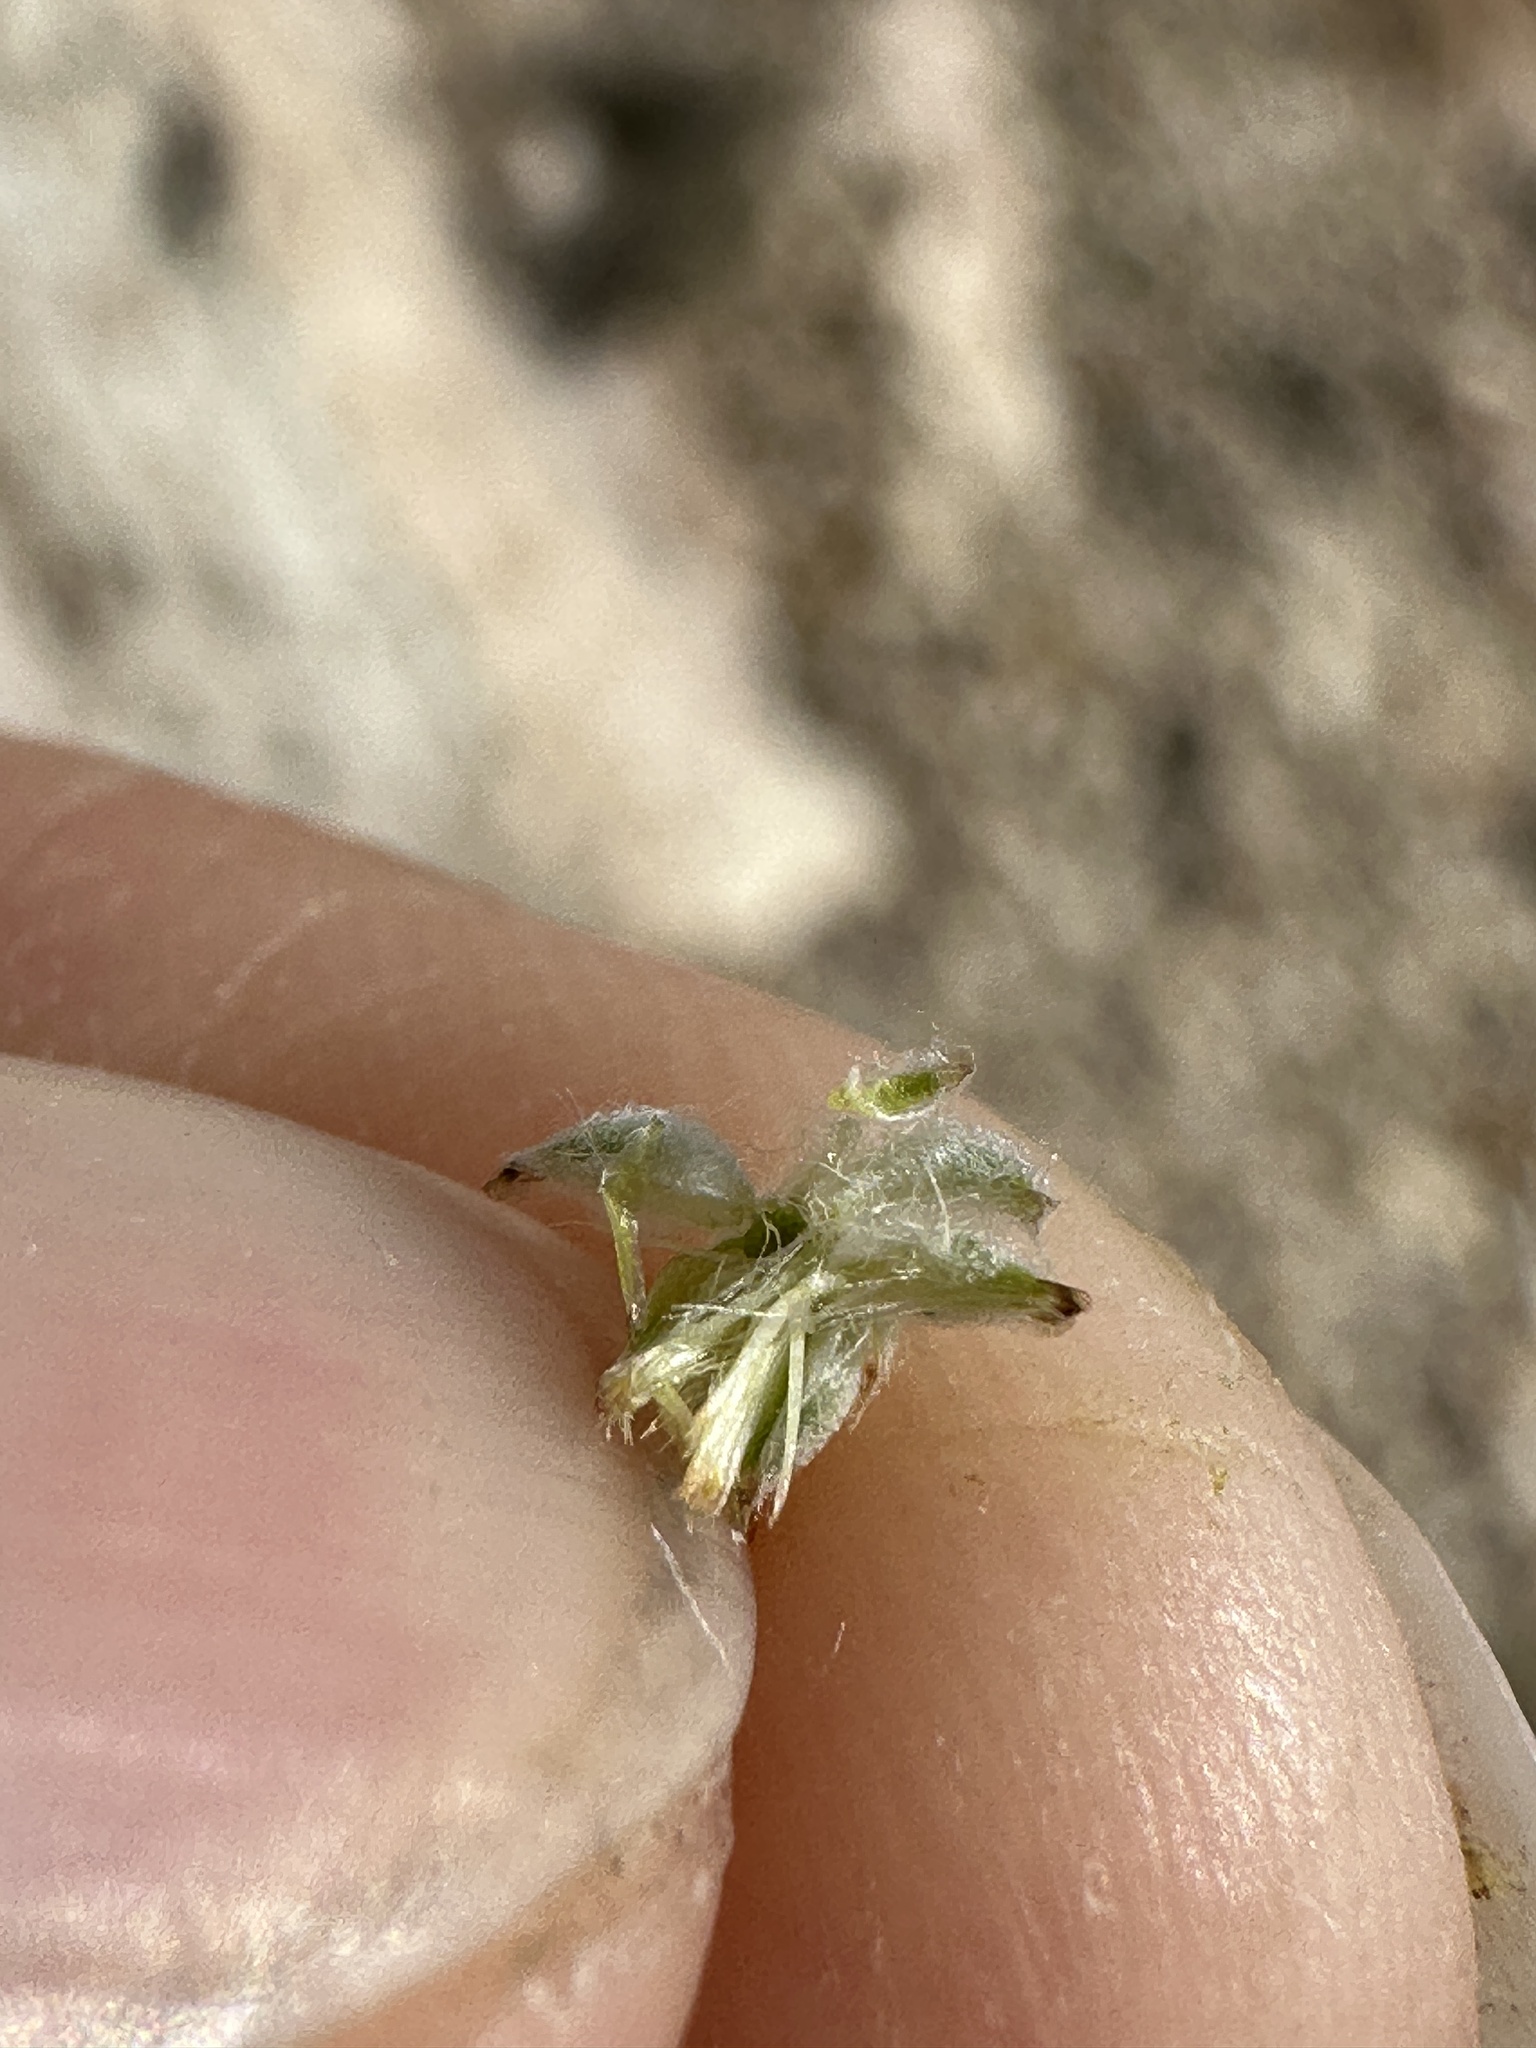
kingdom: Plantae
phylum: Tracheophyta
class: Magnoliopsida
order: Asterales
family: Asteraceae
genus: Logfia
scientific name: Logfia californica
